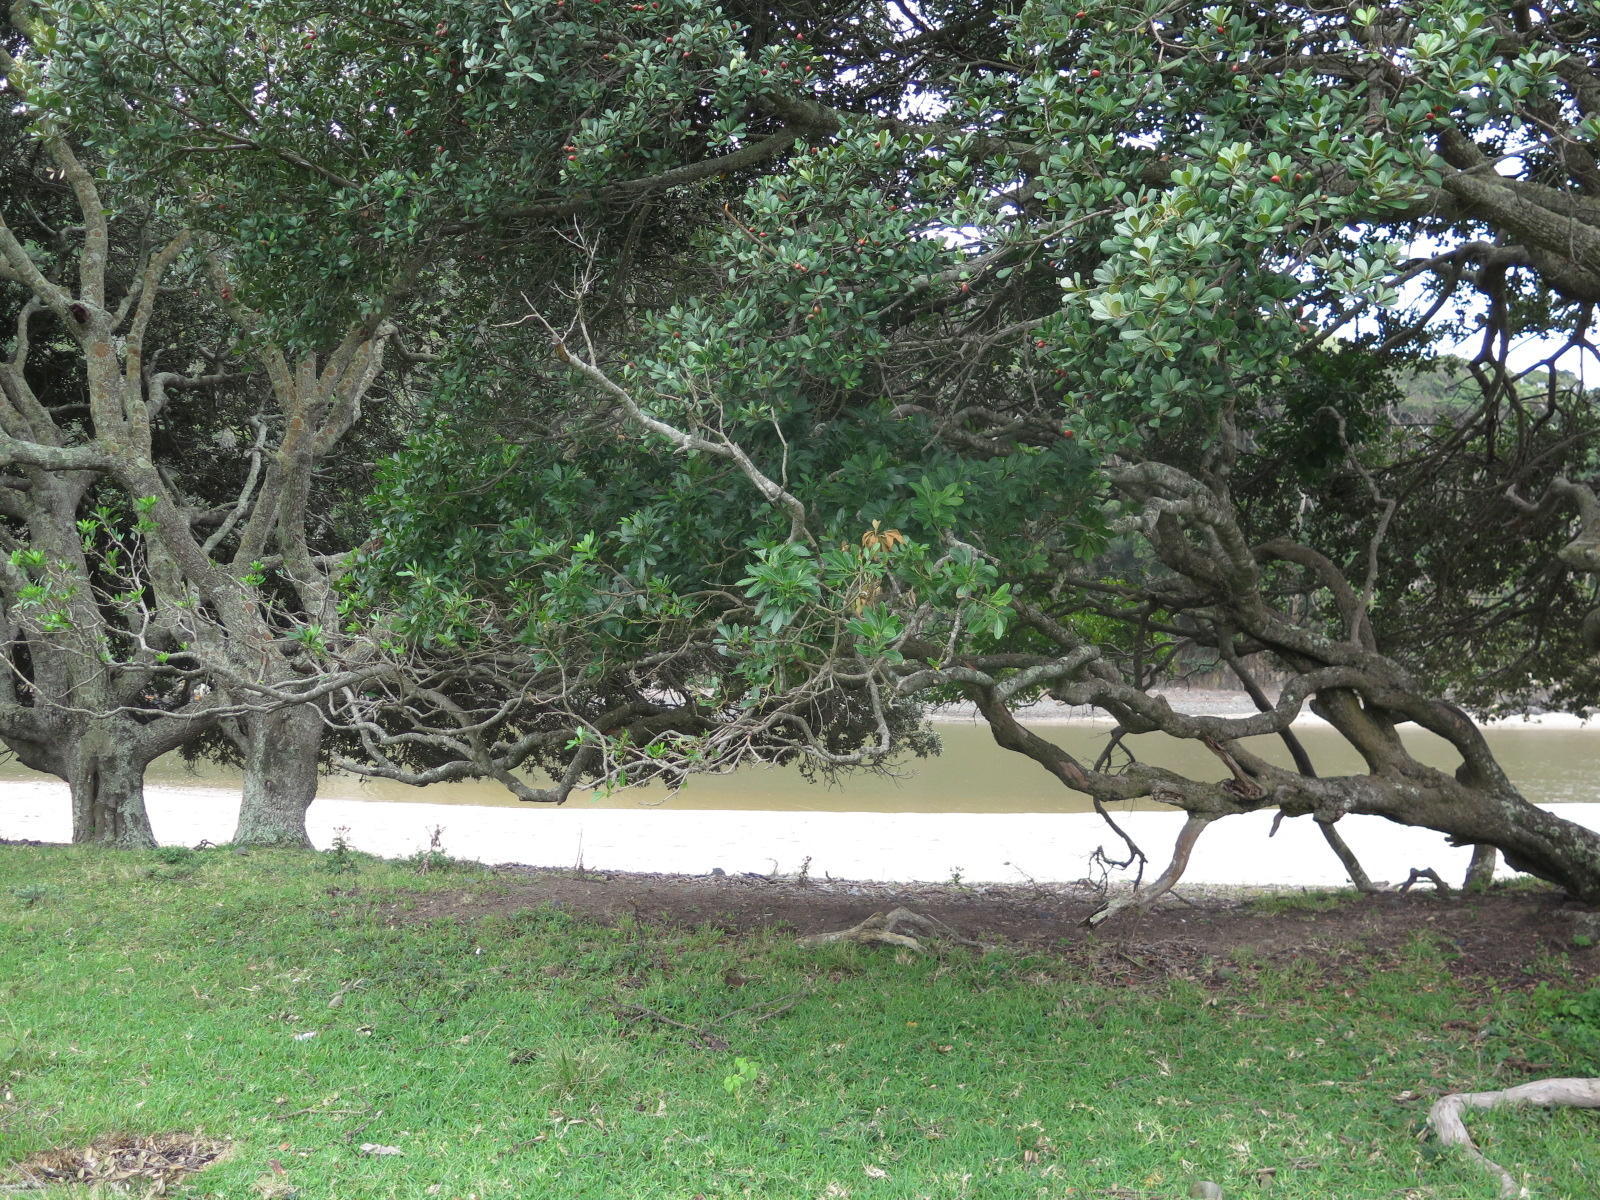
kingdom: Plantae
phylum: Tracheophyta
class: Magnoliopsida
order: Sapindales
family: Sapindaceae
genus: Allophylus
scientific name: Allophylus natalensis
